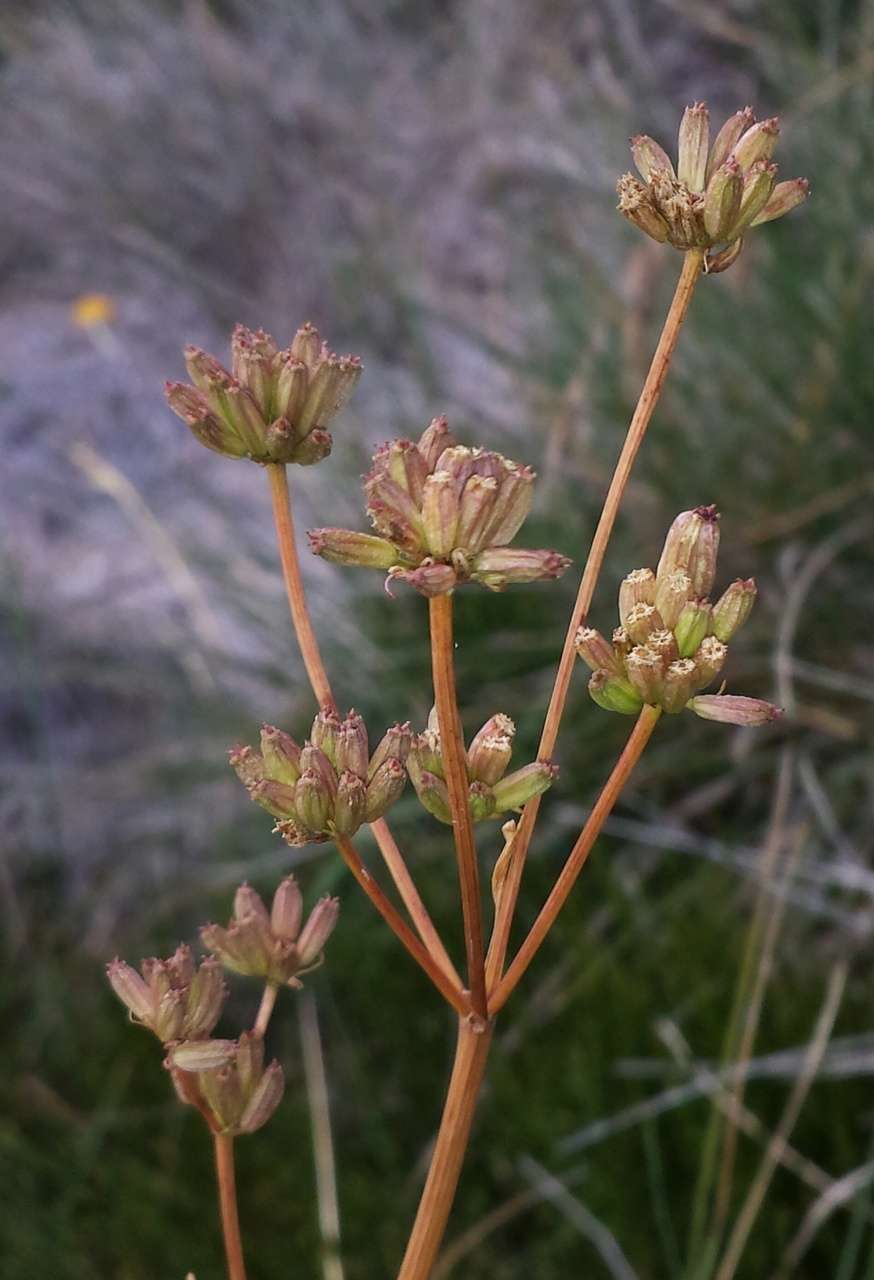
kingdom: Plantae
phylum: Tracheophyta
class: Magnoliopsida
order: Apiales
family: Apiaceae
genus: Aciphylla
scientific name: Aciphylla simplicifolia
